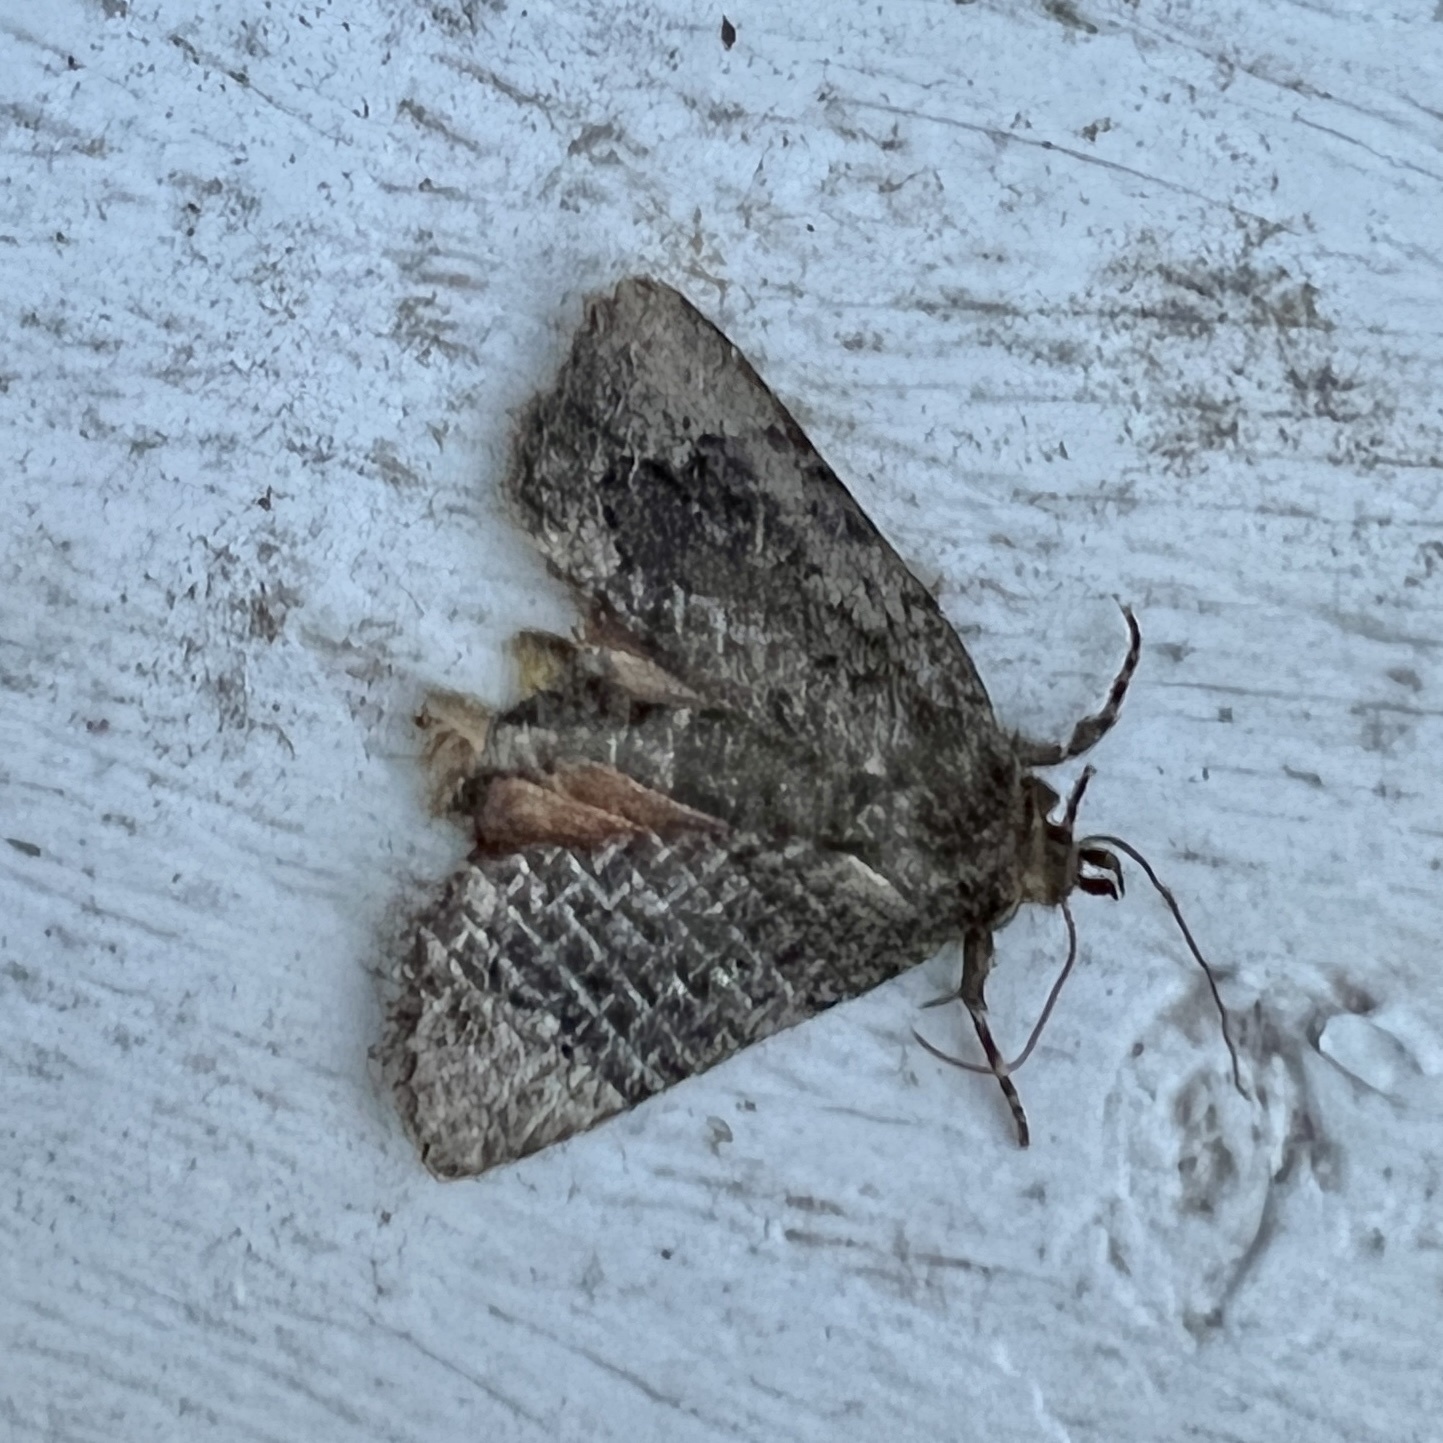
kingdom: Animalia
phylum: Arthropoda
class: Insecta
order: Lepidoptera
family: Noctuidae
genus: Amphipyra
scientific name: Amphipyra pyramidoides
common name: American copper underwing
